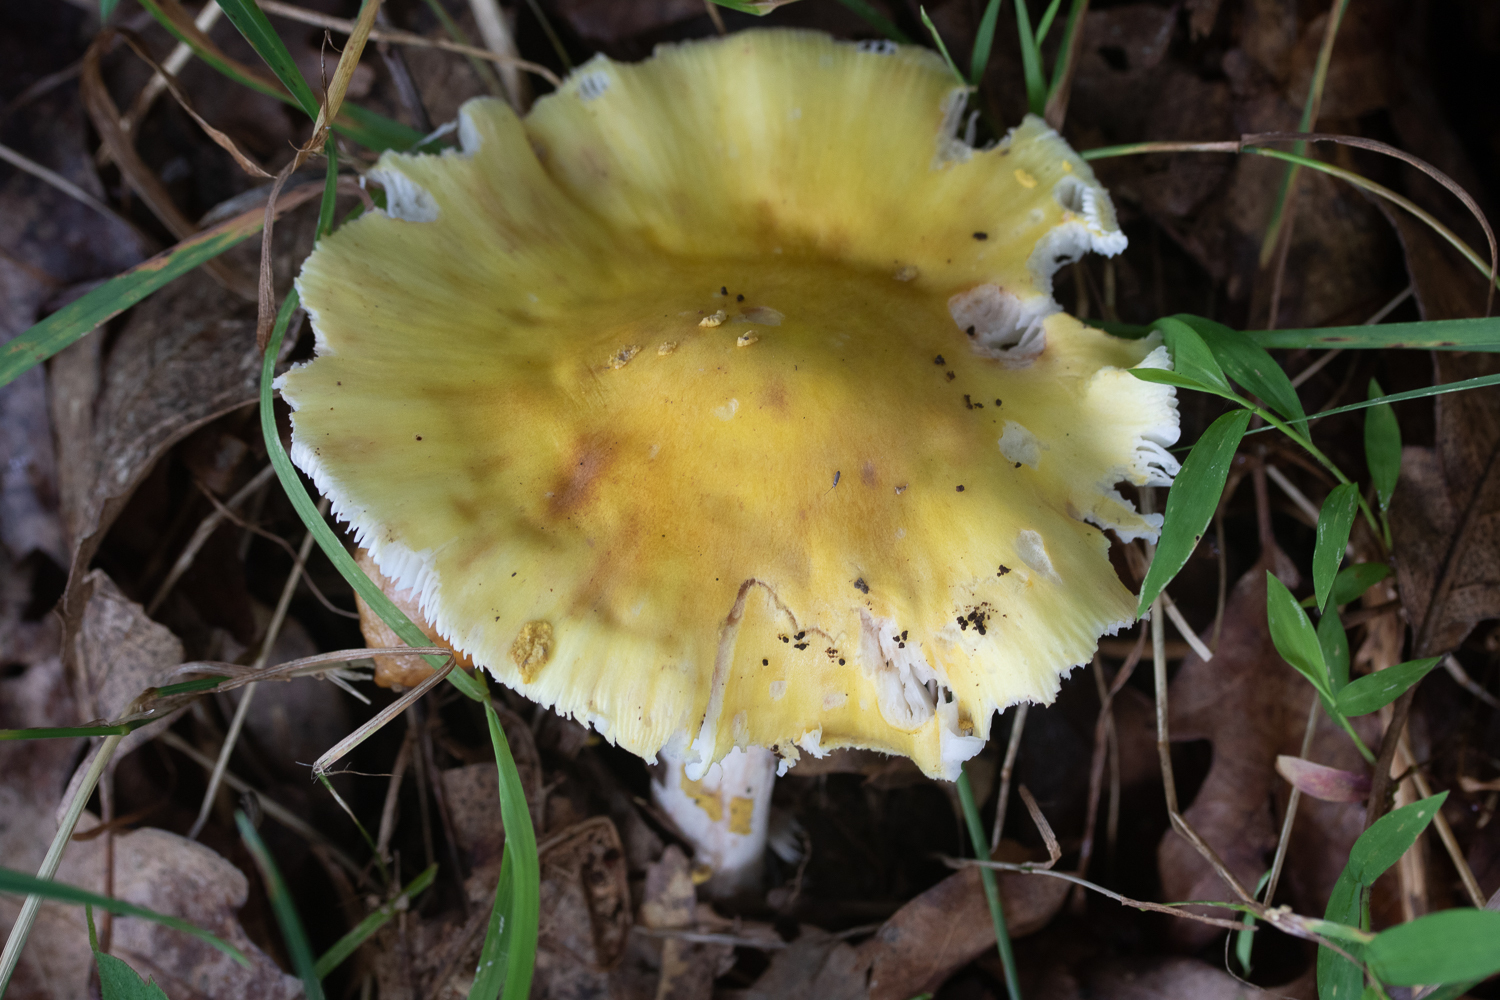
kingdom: Fungi
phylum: Basidiomycota
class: Agaricomycetes
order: Agaricales
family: Amanitaceae
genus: Amanita
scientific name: Amanita flavorubens
